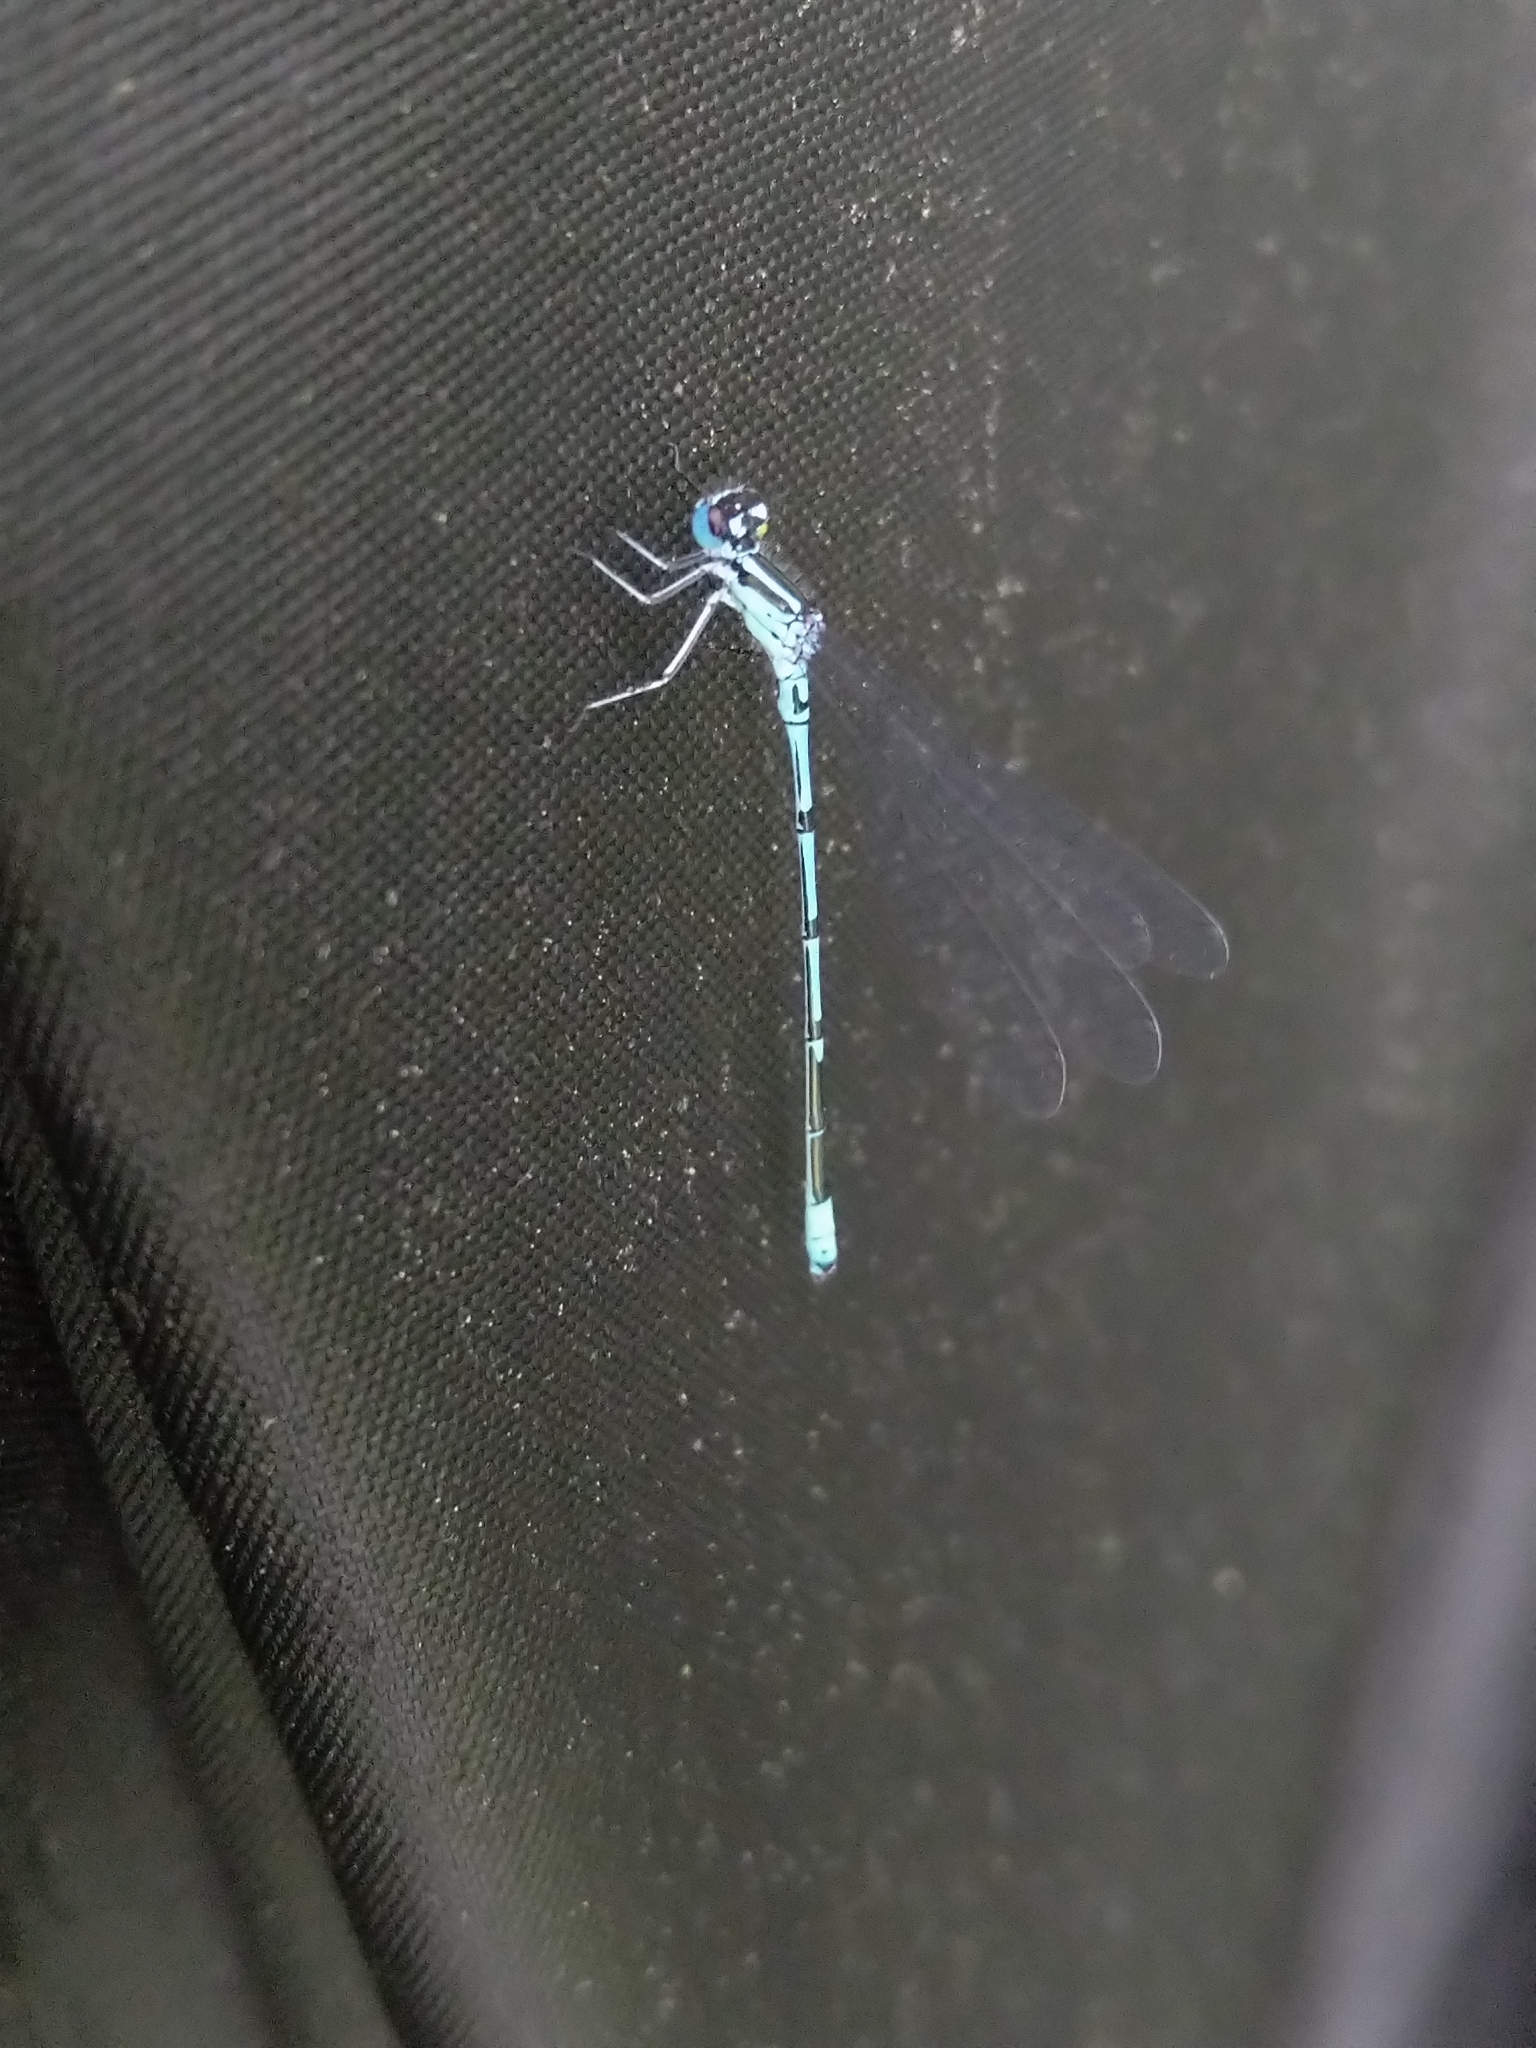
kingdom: Animalia
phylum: Arthropoda
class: Insecta
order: Odonata
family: Coenagrionidae
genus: Coenagrion
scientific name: Coenagrion puella
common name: Azure damselfly
